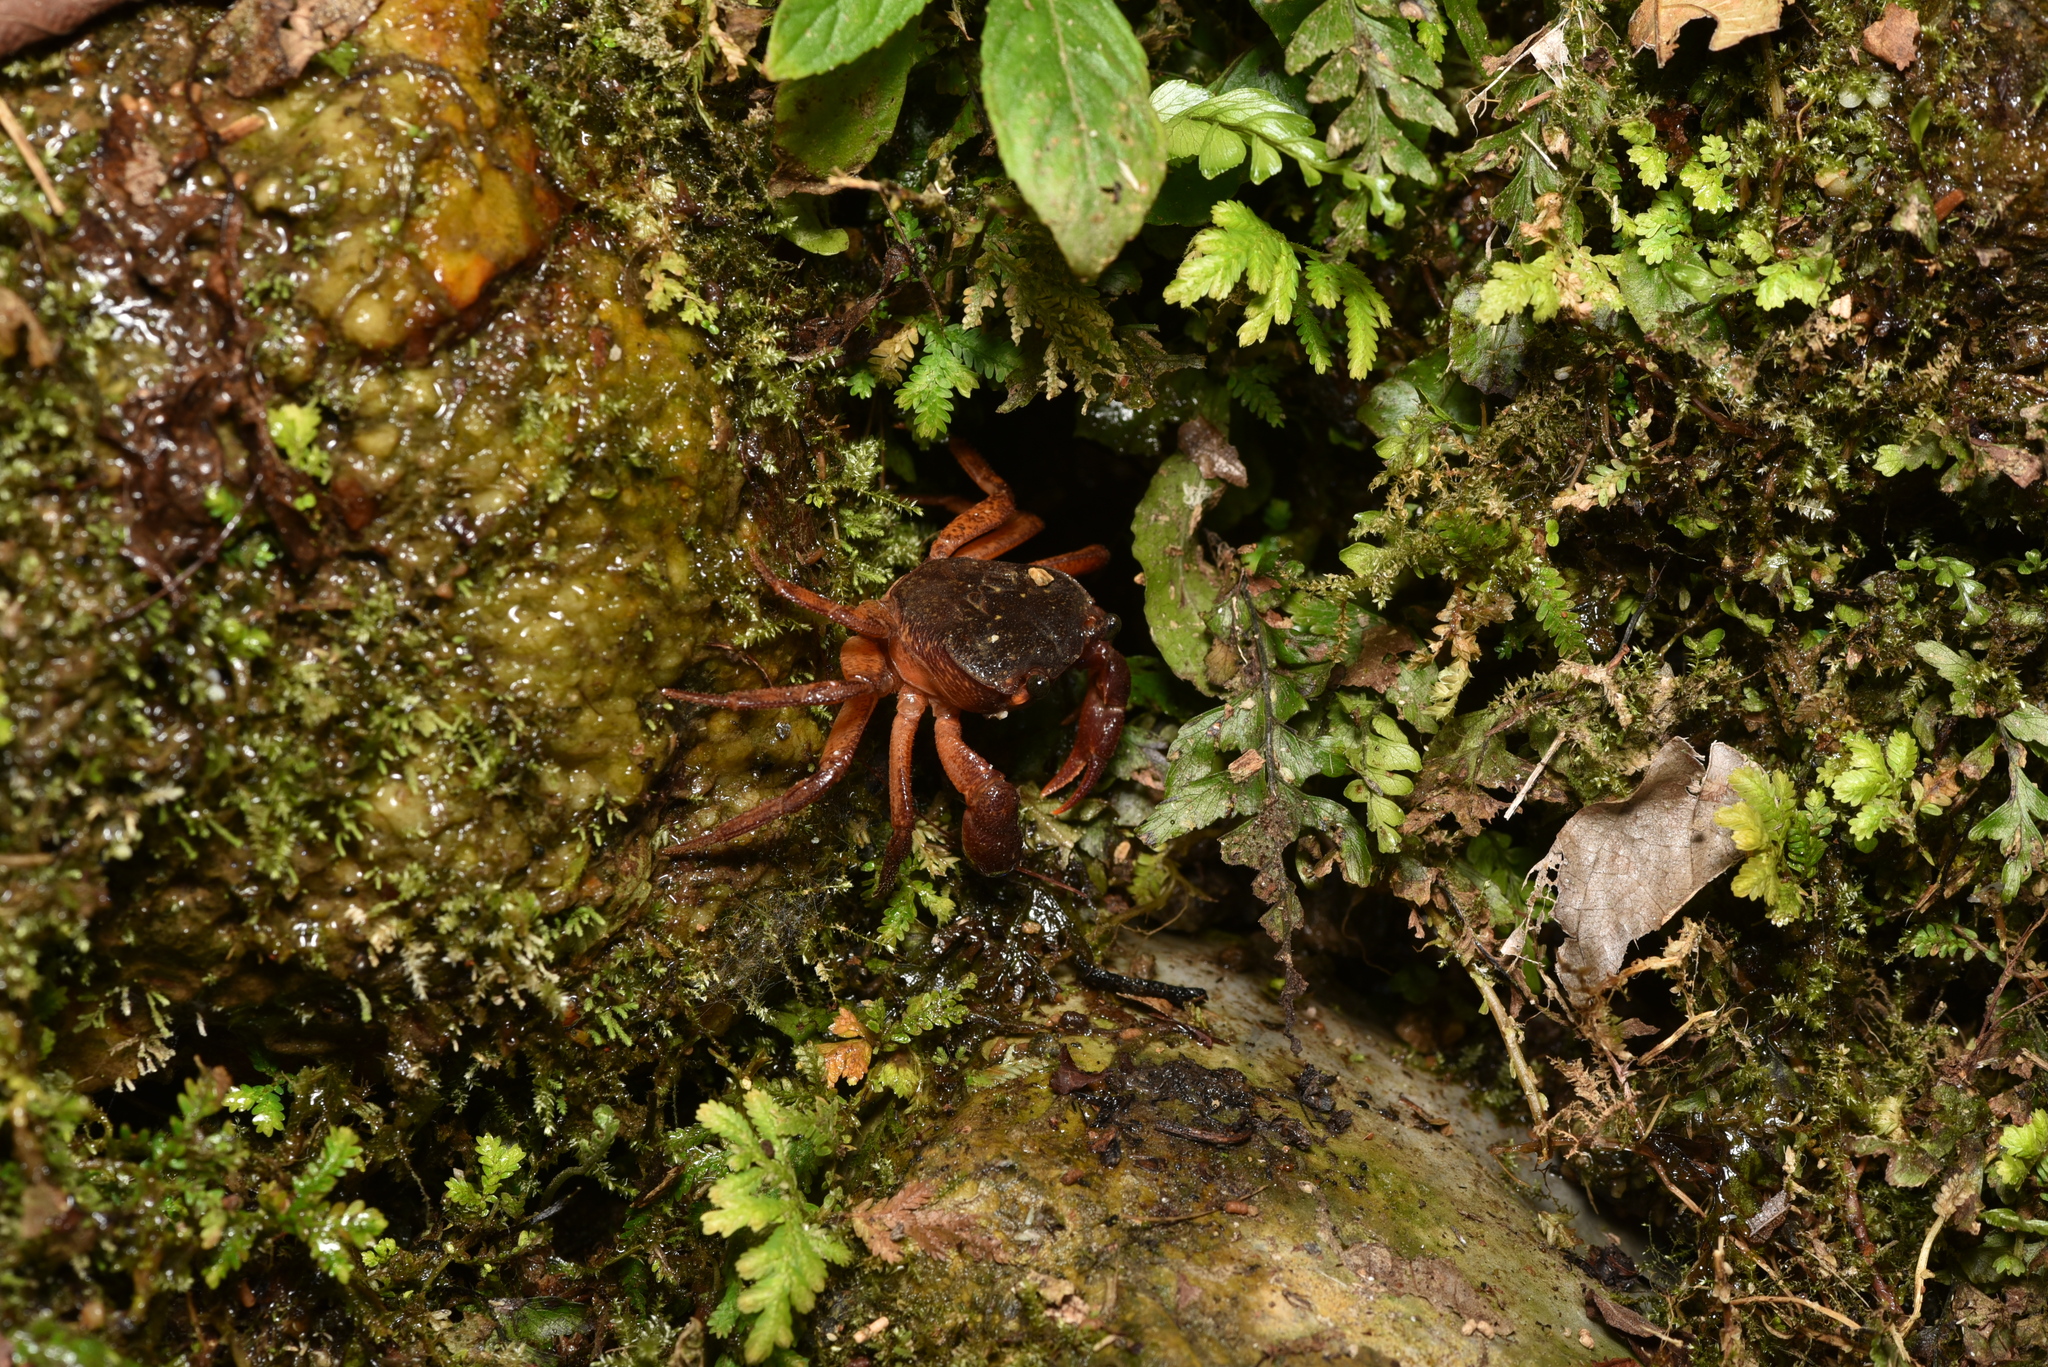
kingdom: Animalia
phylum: Arthropoda
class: Malacostraca
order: Decapoda
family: Potamidae
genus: Candidiopotamon
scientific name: Candidiopotamon
